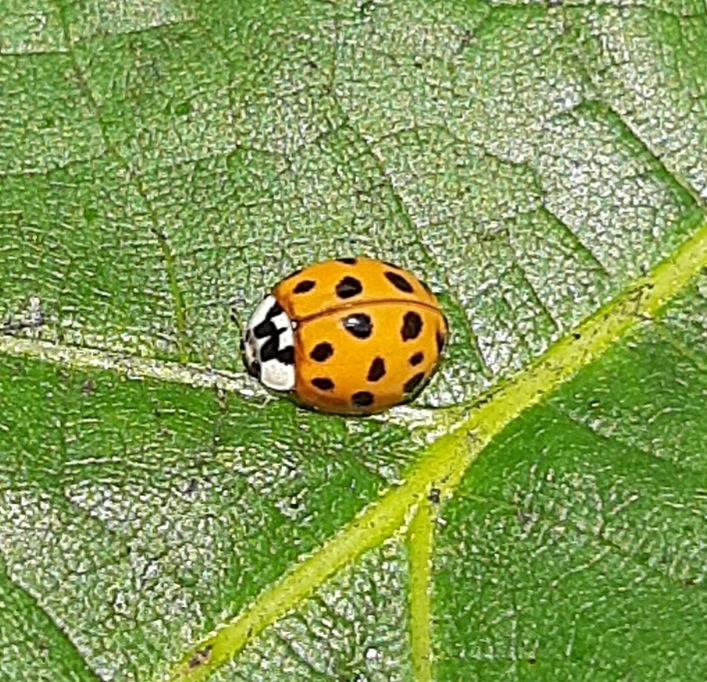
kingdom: Animalia
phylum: Arthropoda
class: Insecta
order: Coleoptera
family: Coccinellidae
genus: Harmonia
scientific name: Harmonia axyridis
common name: Harlequin ladybird
